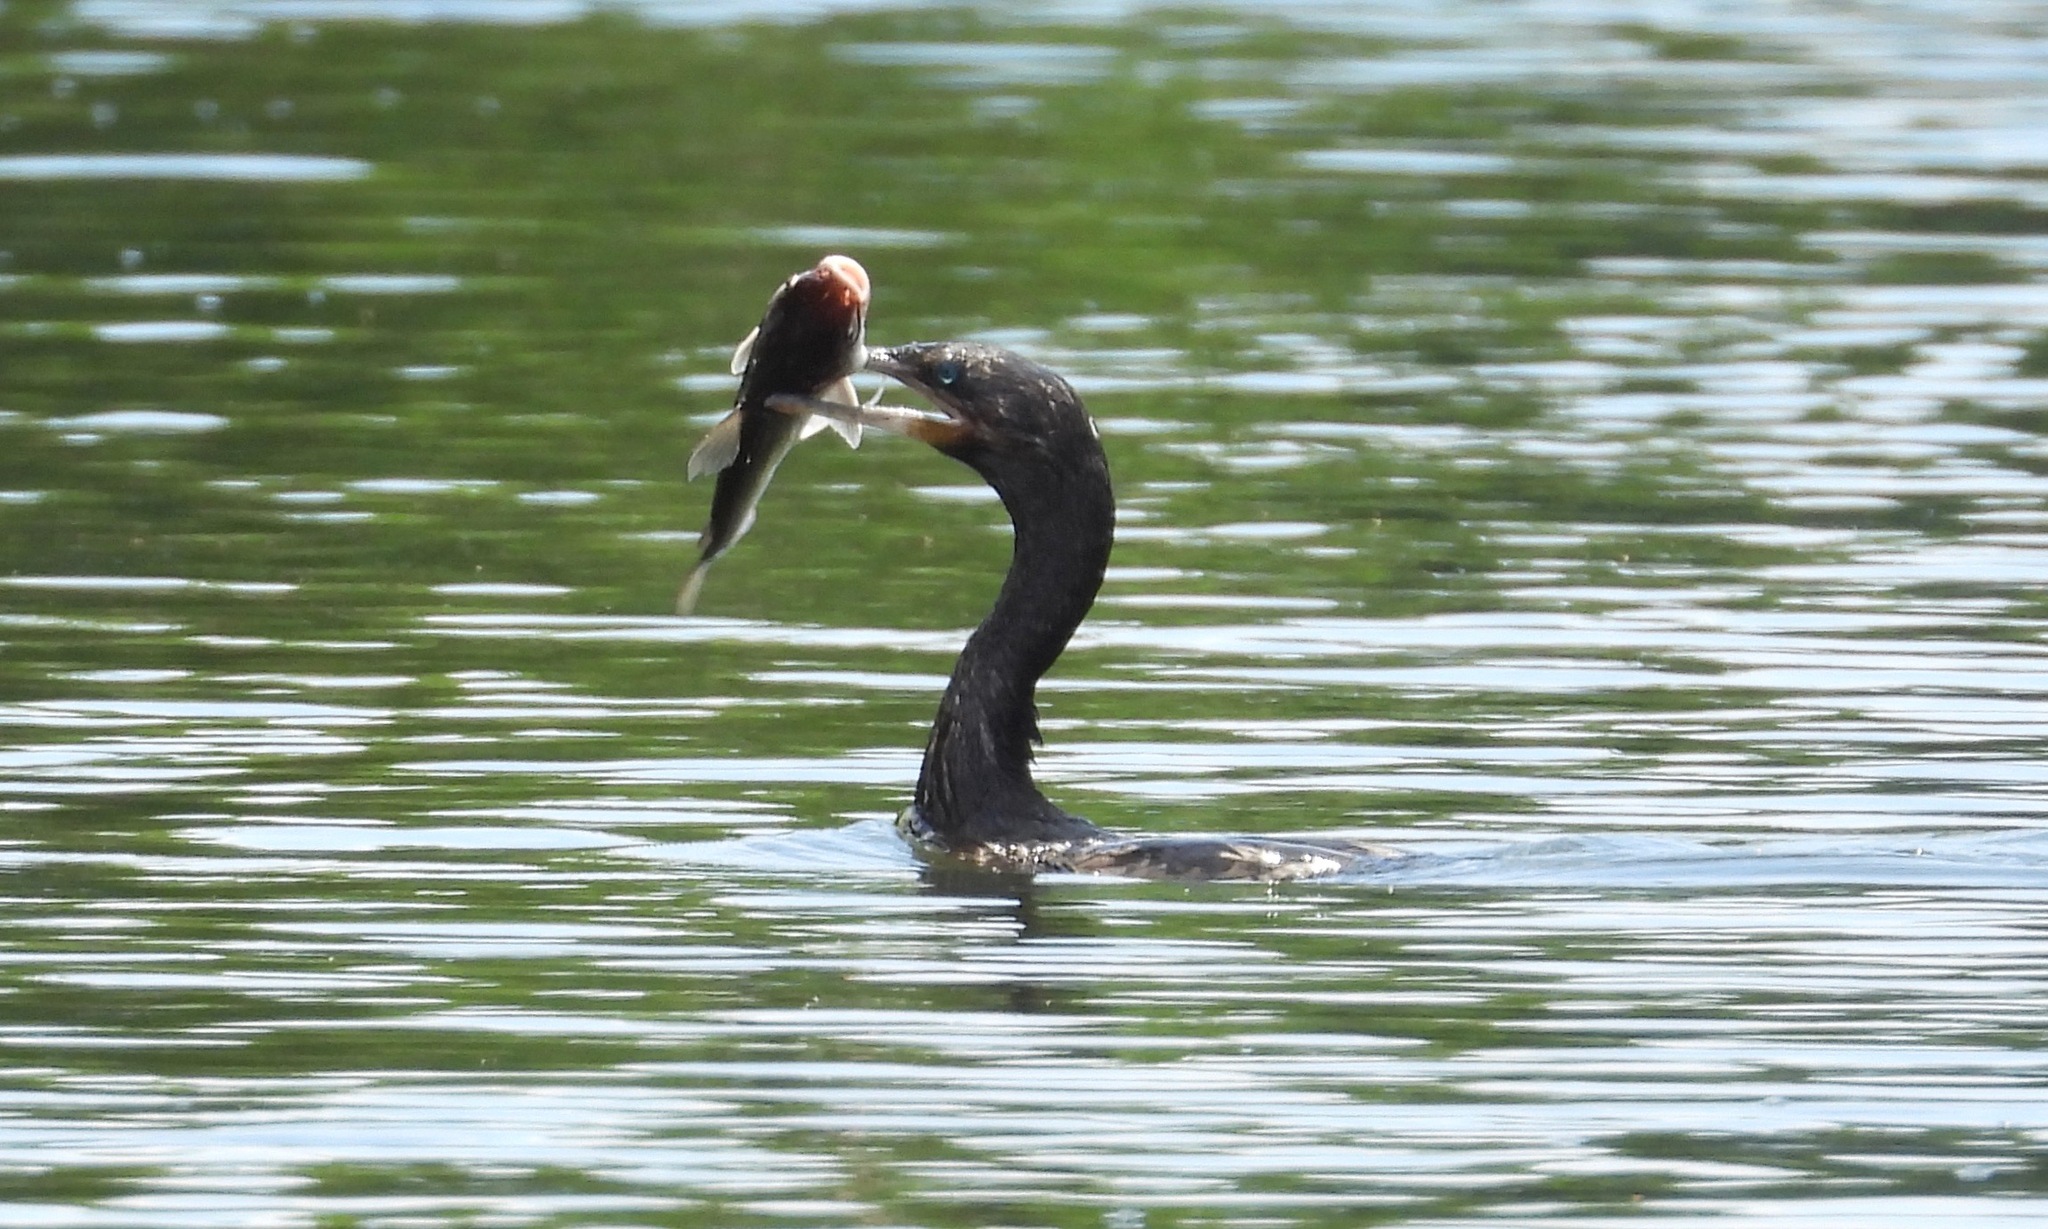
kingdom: Animalia
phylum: Chordata
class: Aves
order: Suliformes
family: Phalacrocoracidae
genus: Phalacrocorax
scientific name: Phalacrocorax brasilianus
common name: Neotropic cormorant
